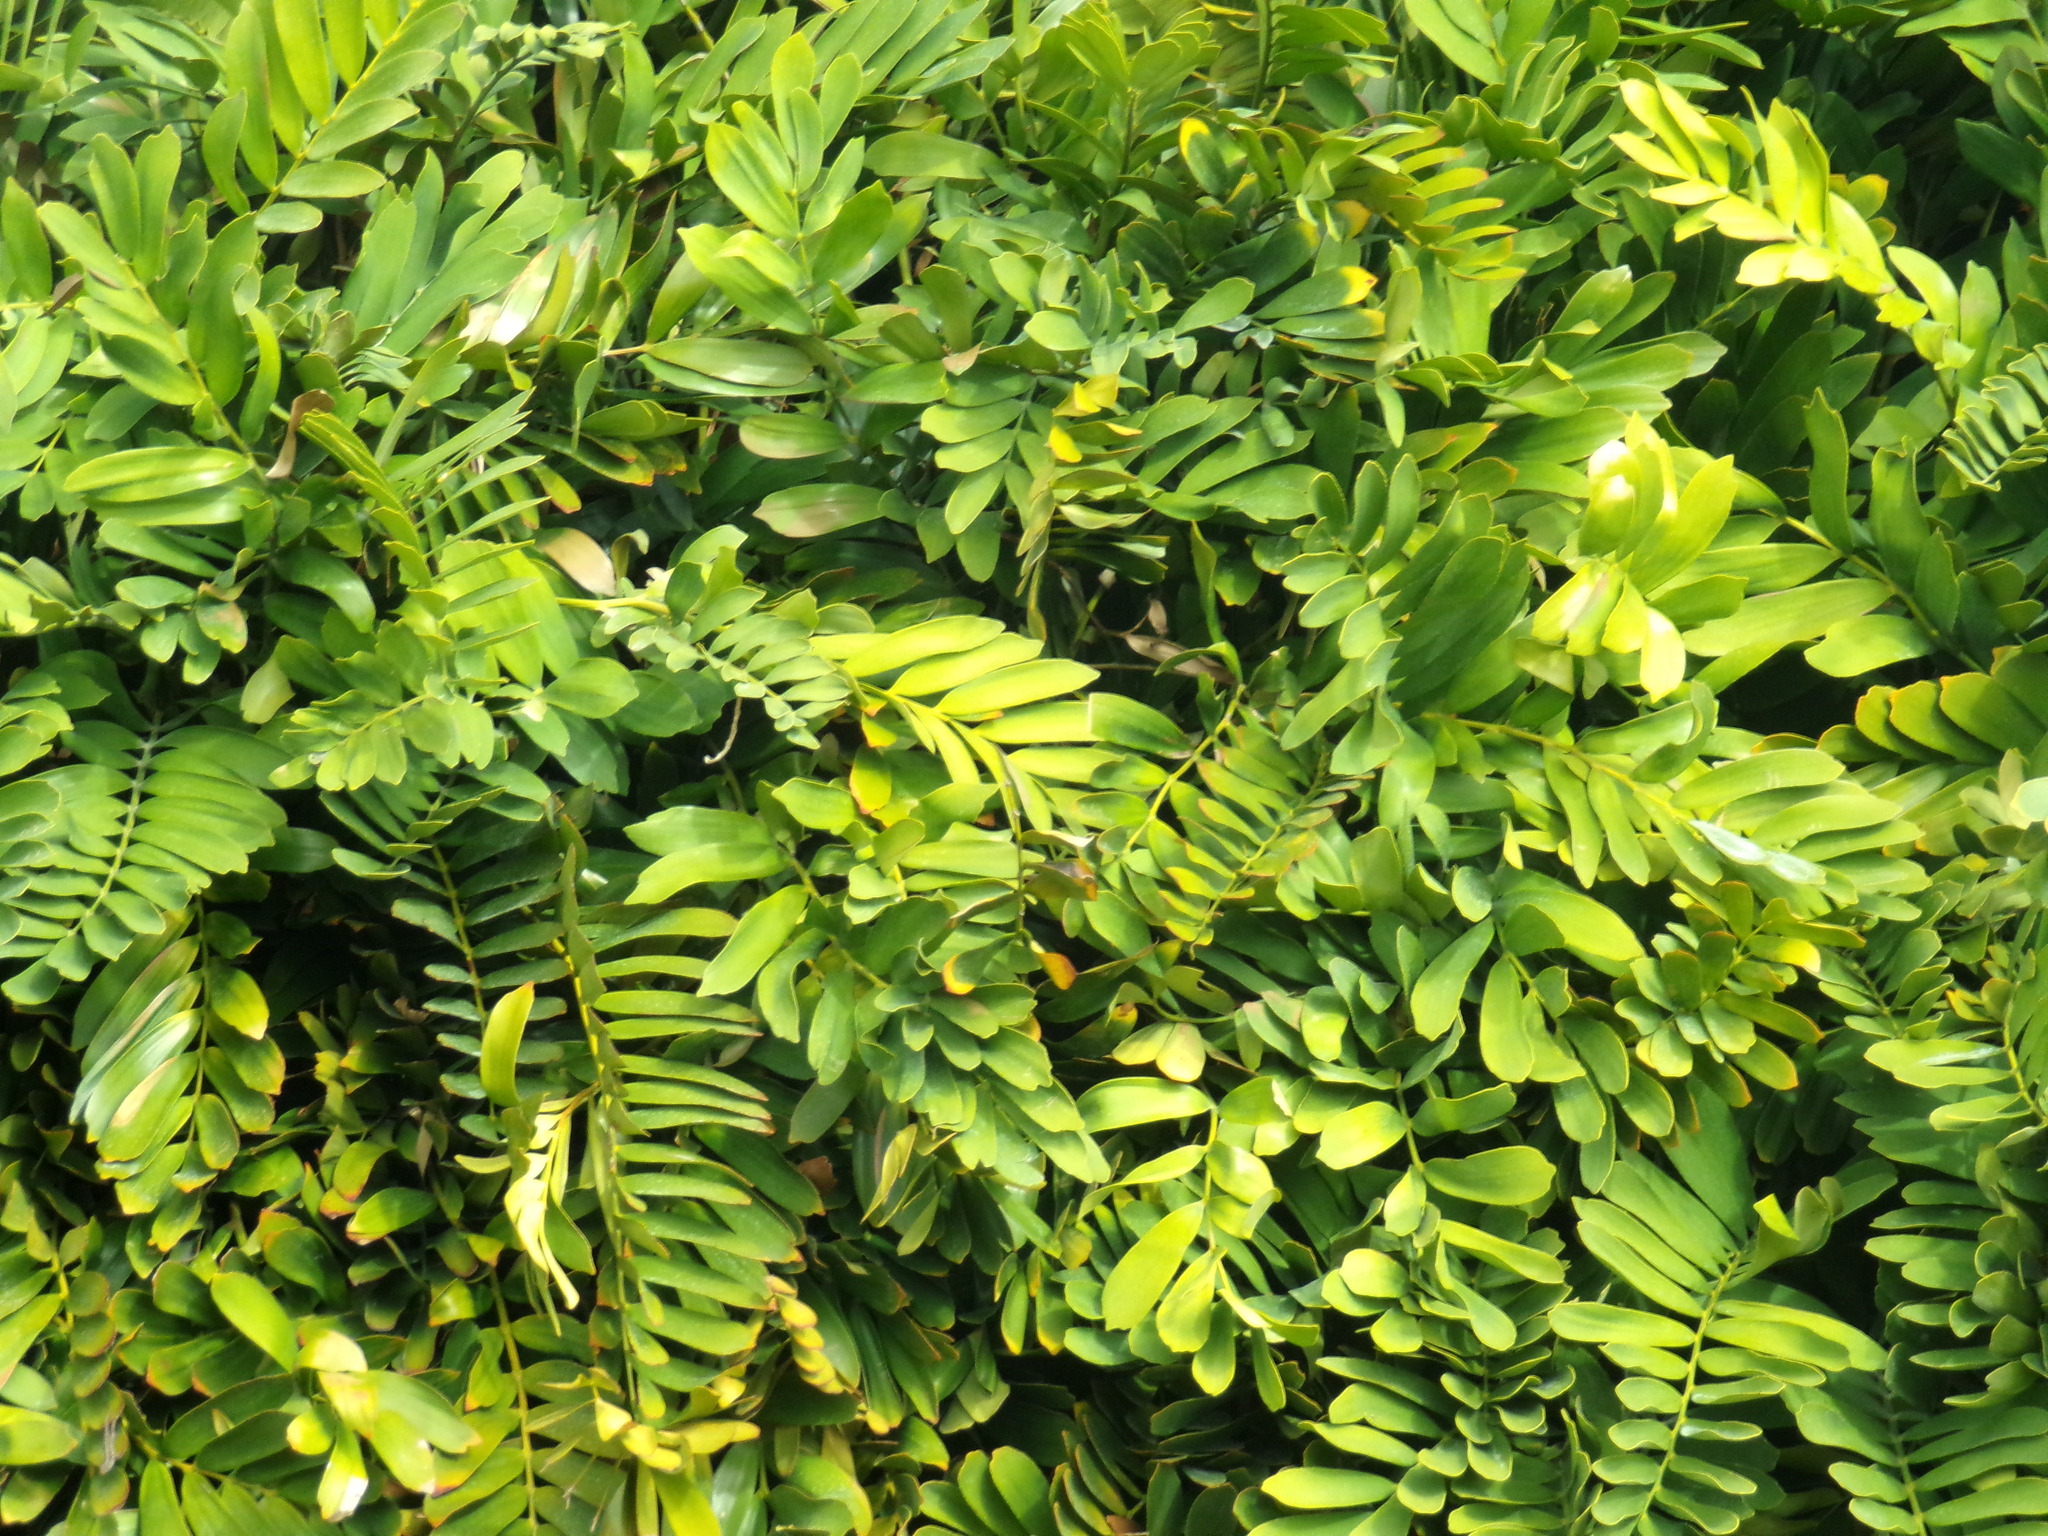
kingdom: Plantae
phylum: Tracheophyta
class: Cycadopsida
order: Cycadales
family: Zamiaceae
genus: Zamia
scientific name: Zamia furfuracea
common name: Cardboard palm
